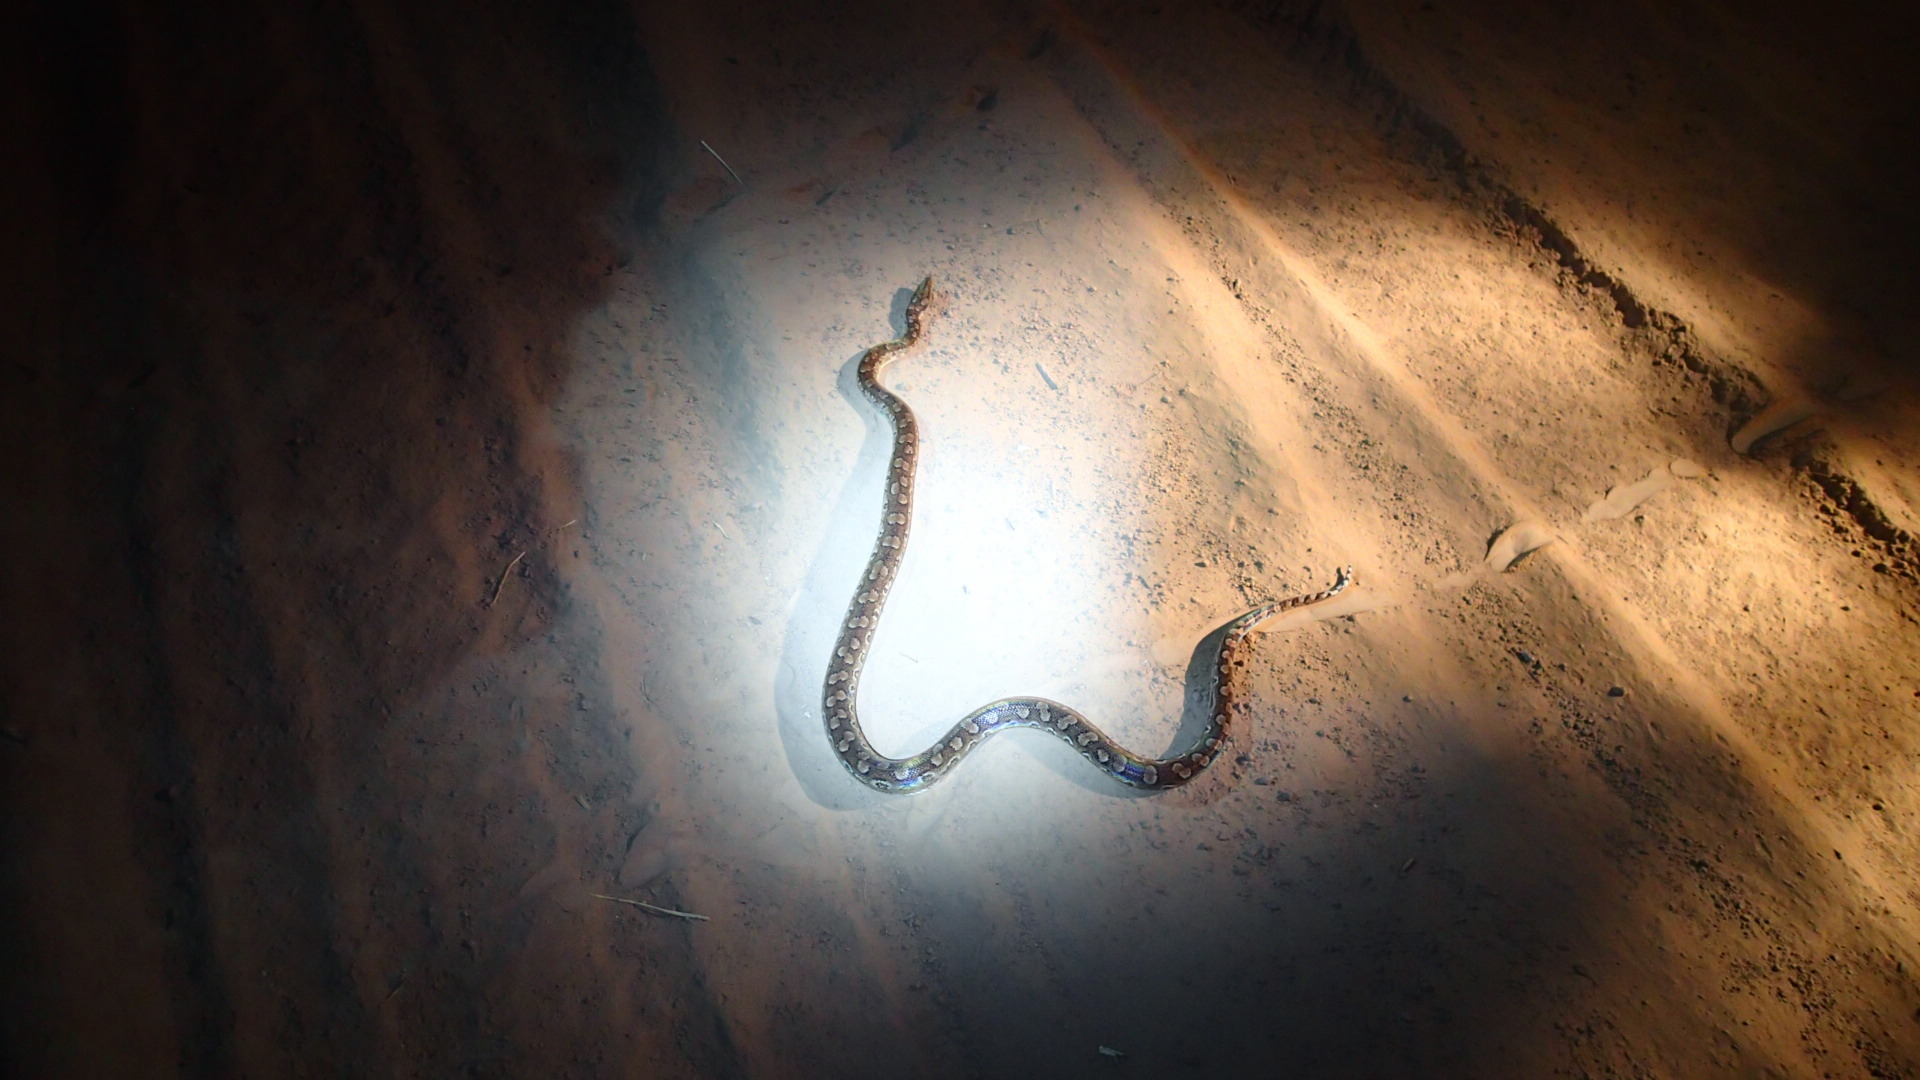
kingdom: Animalia
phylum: Chordata
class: Squamata
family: Boidae
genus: Epicrates
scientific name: Epicrates alvarezi
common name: Argentinian rainbow boa
